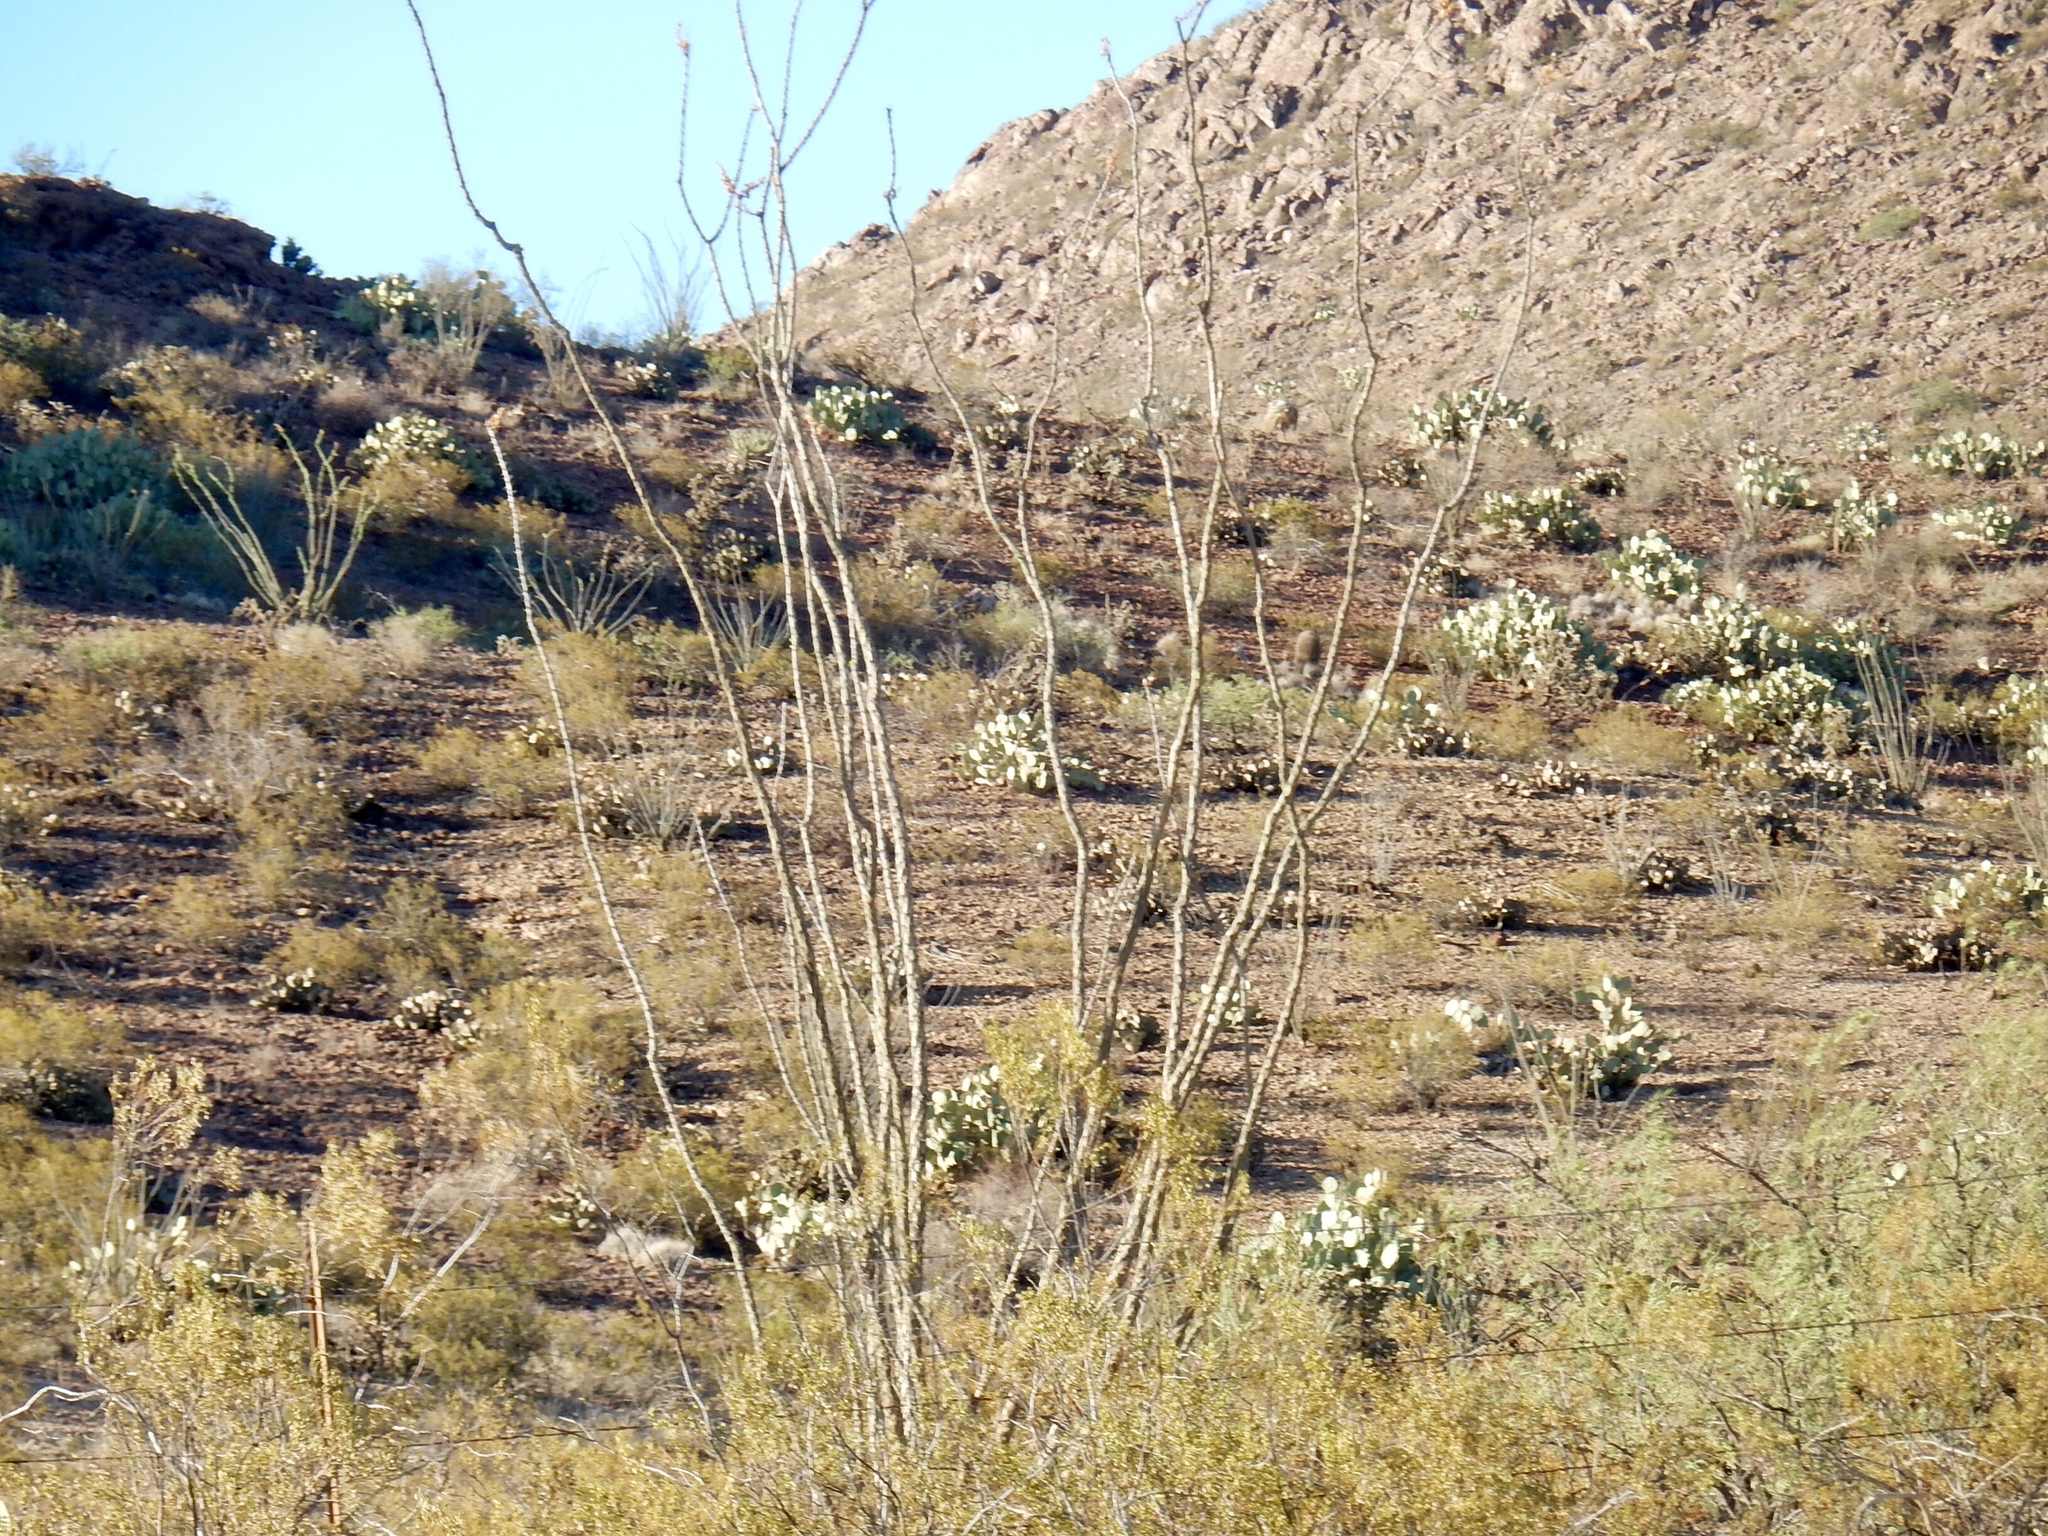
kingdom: Plantae
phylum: Tracheophyta
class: Magnoliopsida
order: Ericales
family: Fouquieriaceae
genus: Fouquieria
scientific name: Fouquieria splendens
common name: Vine-cactus
